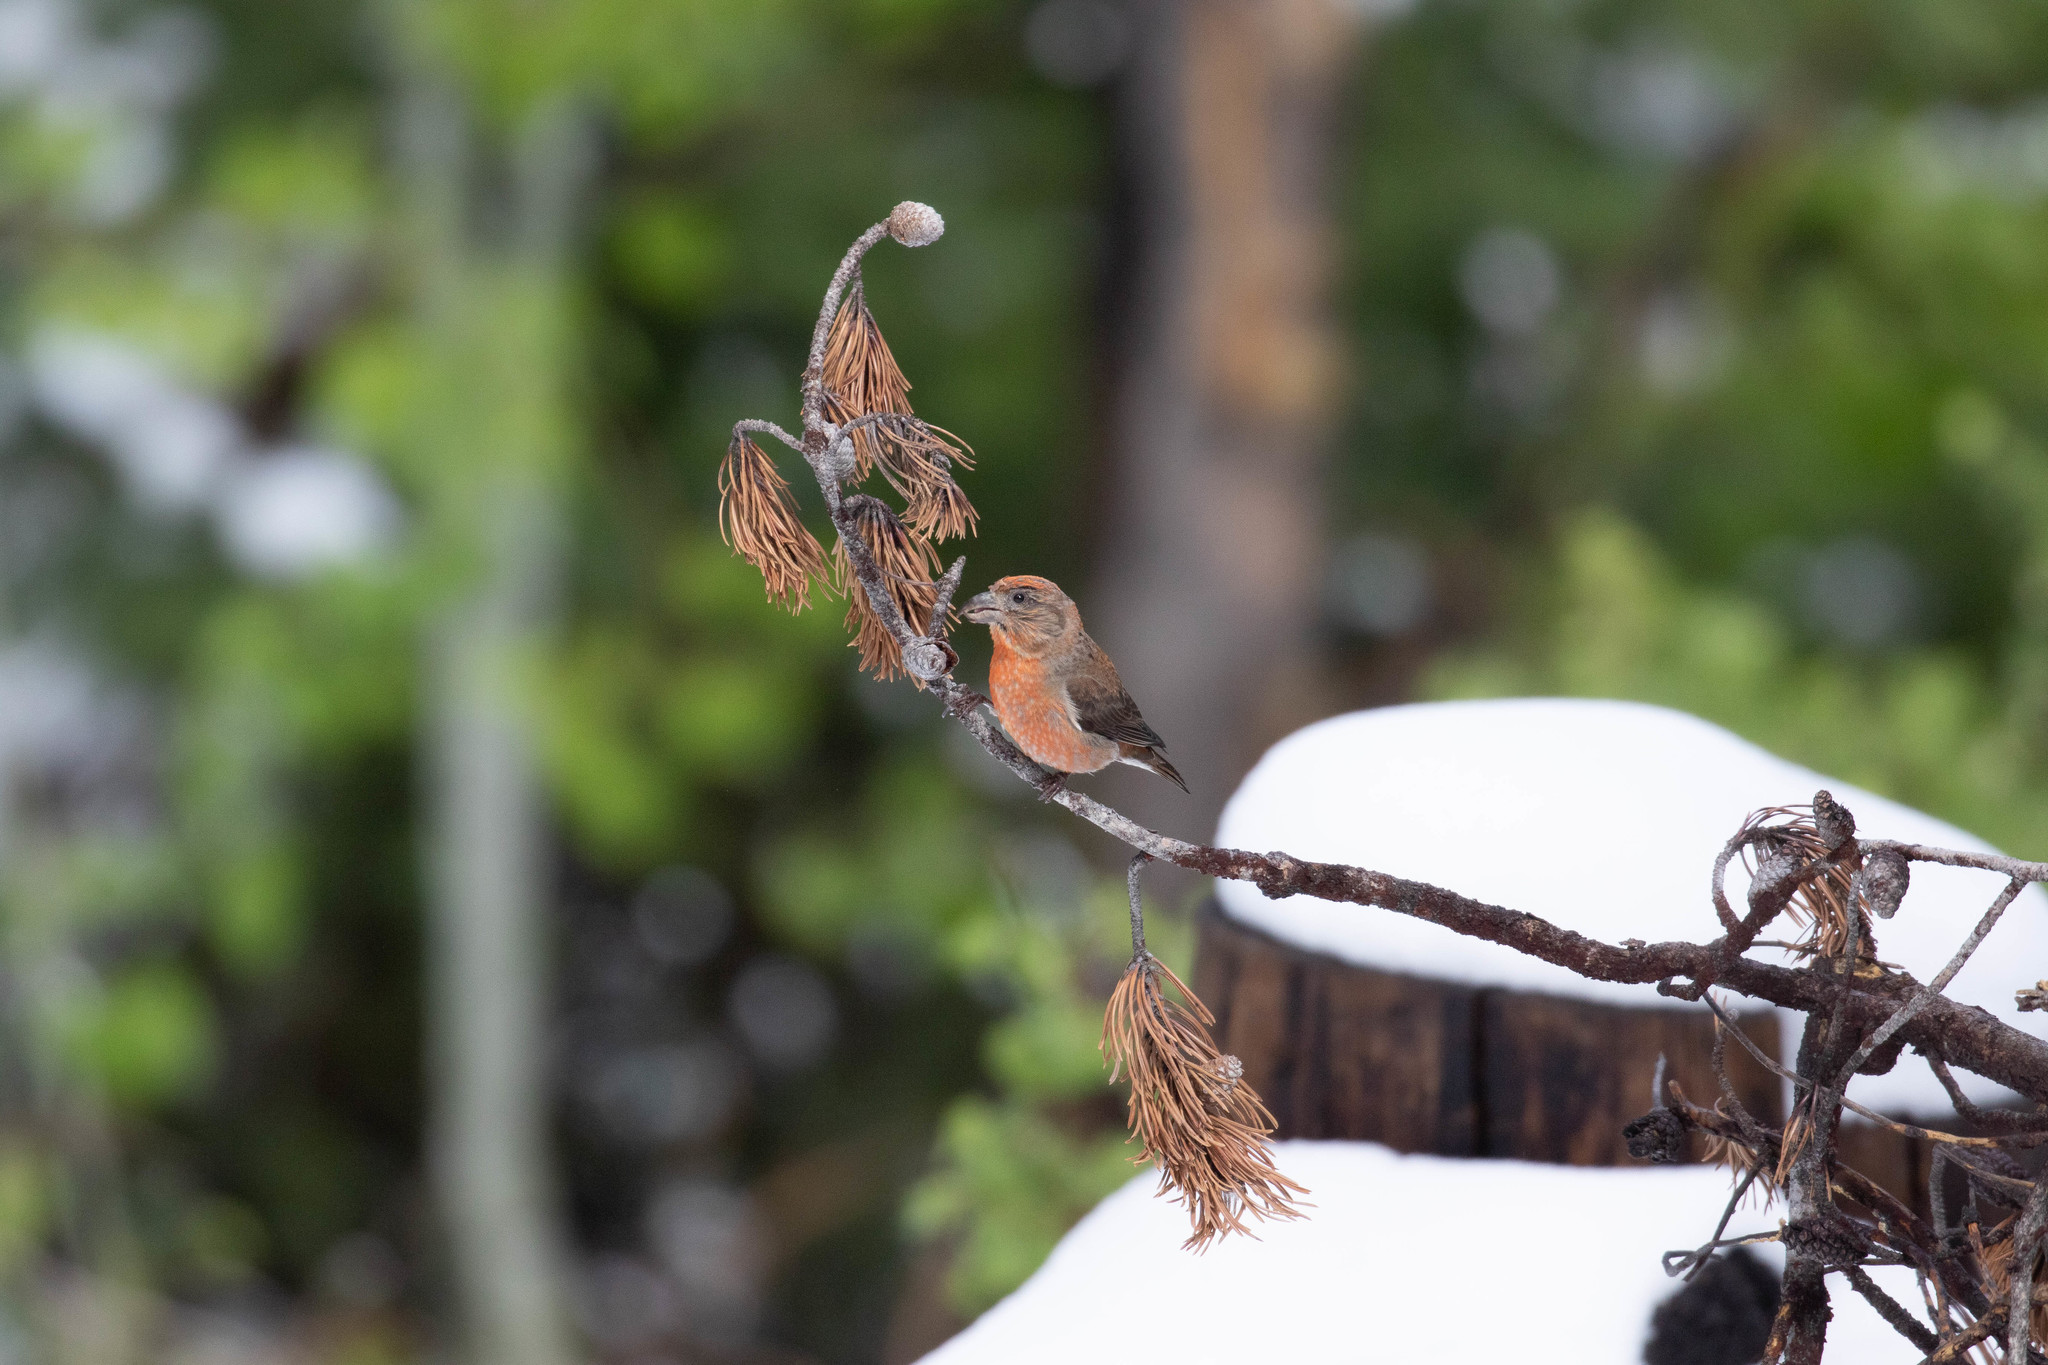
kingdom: Animalia
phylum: Chordata
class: Aves
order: Passeriformes
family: Fringillidae
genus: Loxia
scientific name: Loxia sinesciuris
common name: Cassia crossbill
